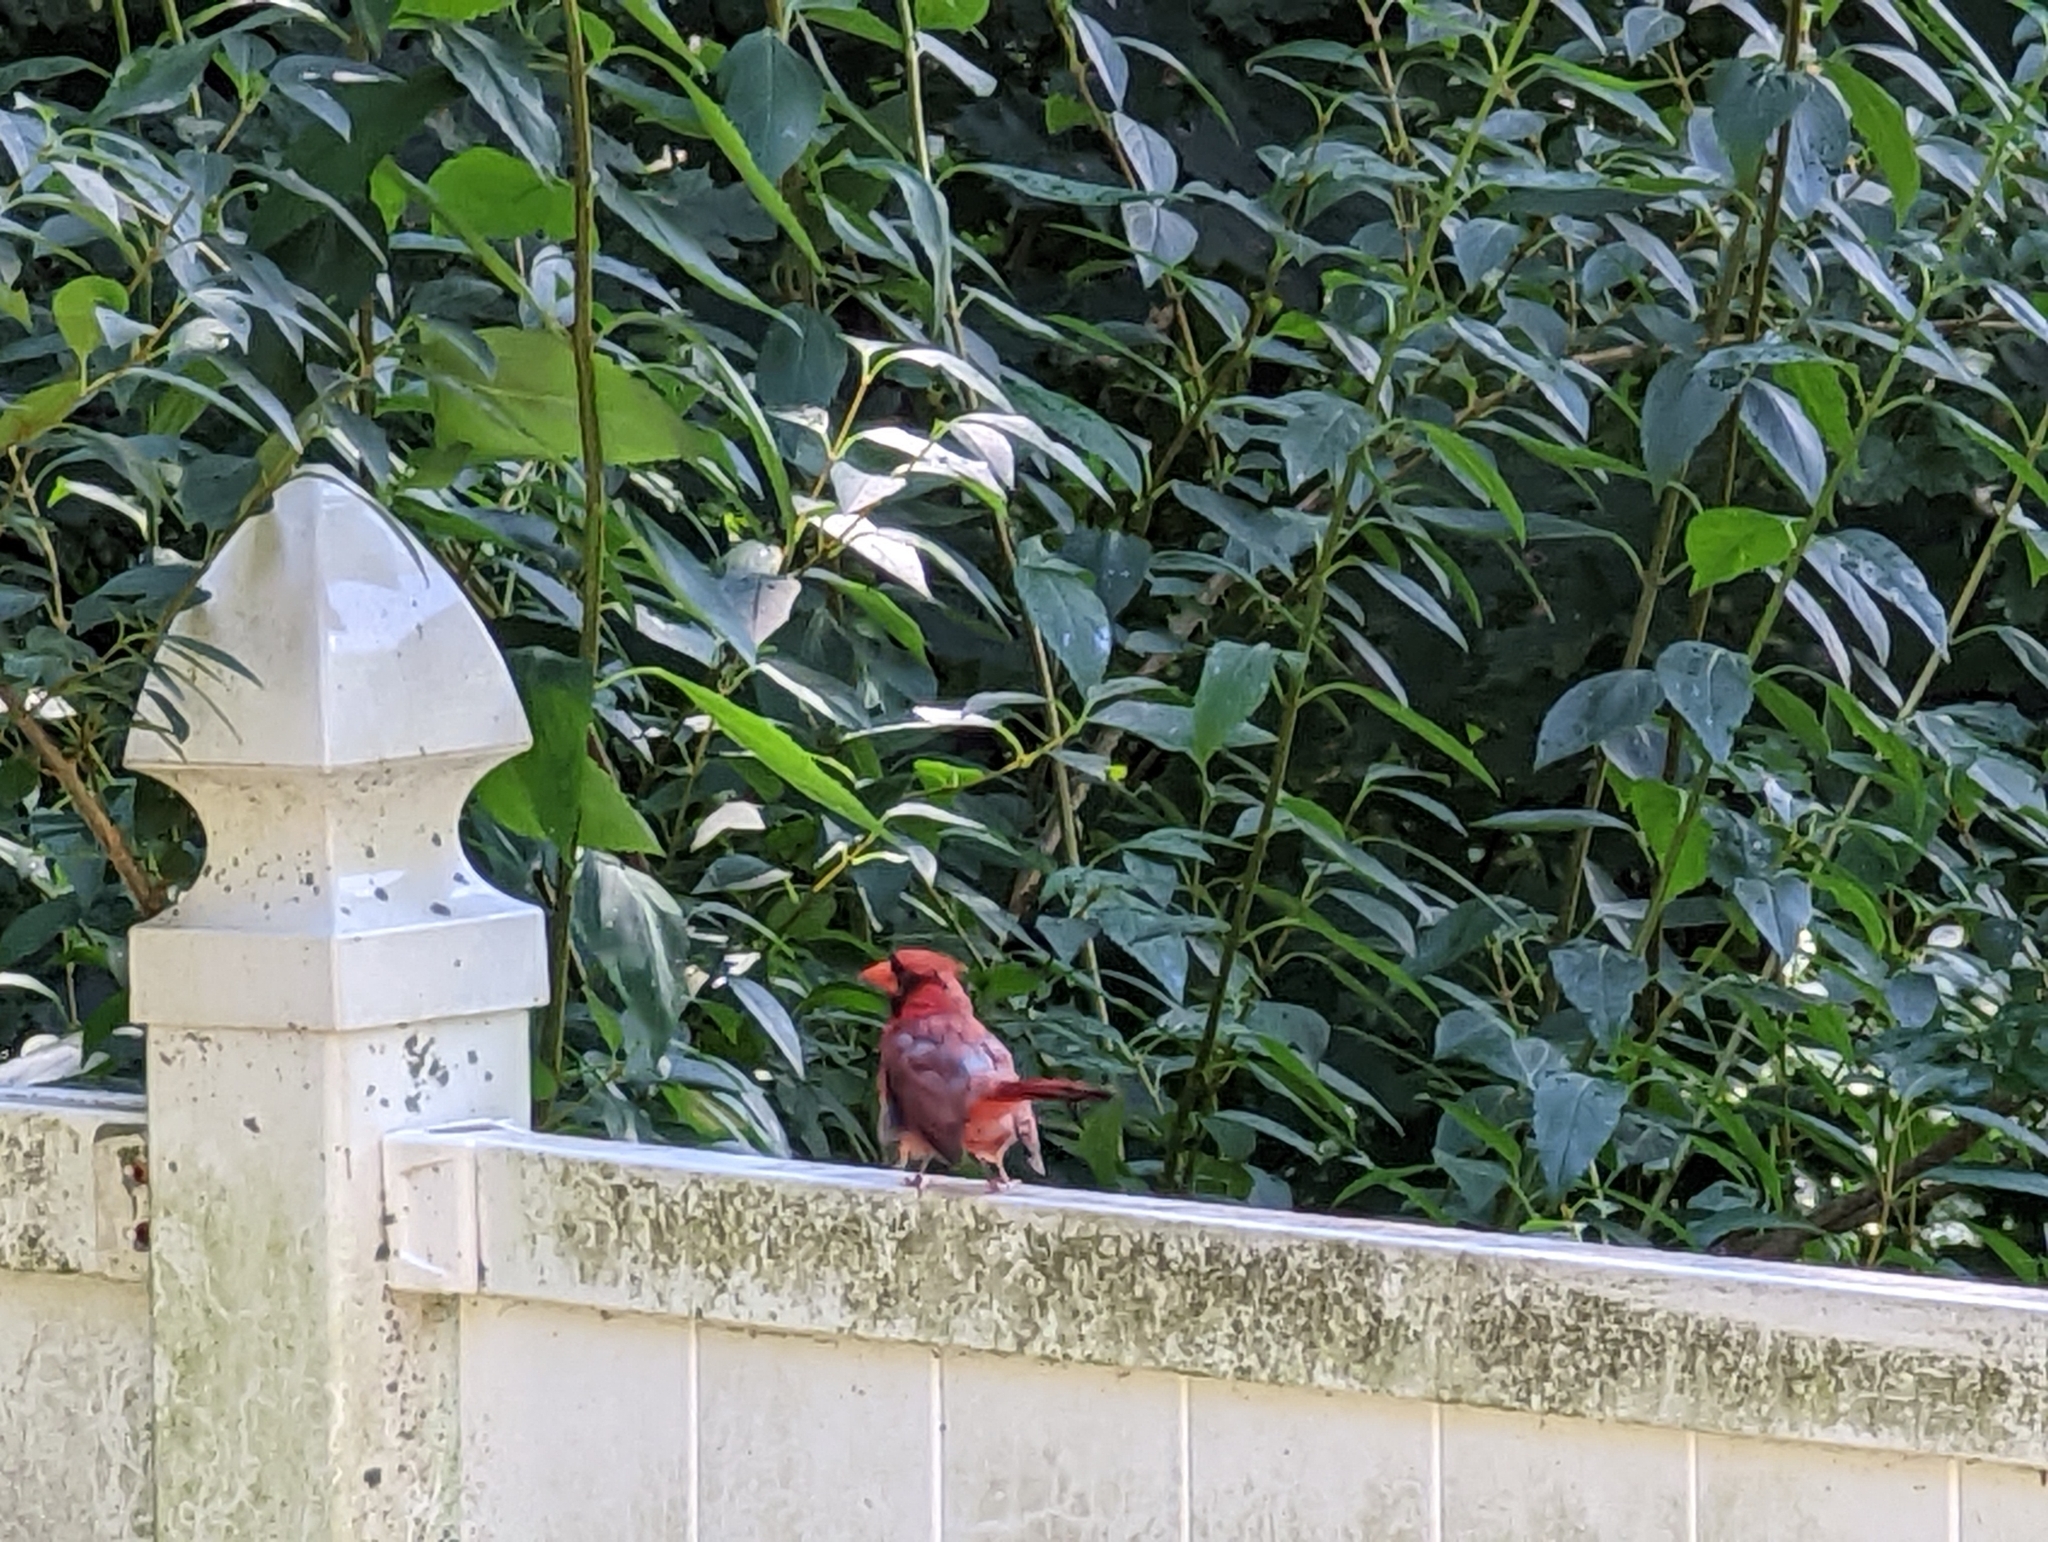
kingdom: Animalia
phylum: Chordata
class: Aves
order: Passeriformes
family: Cardinalidae
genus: Cardinalis
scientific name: Cardinalis cardinalis
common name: Northern cardinal
